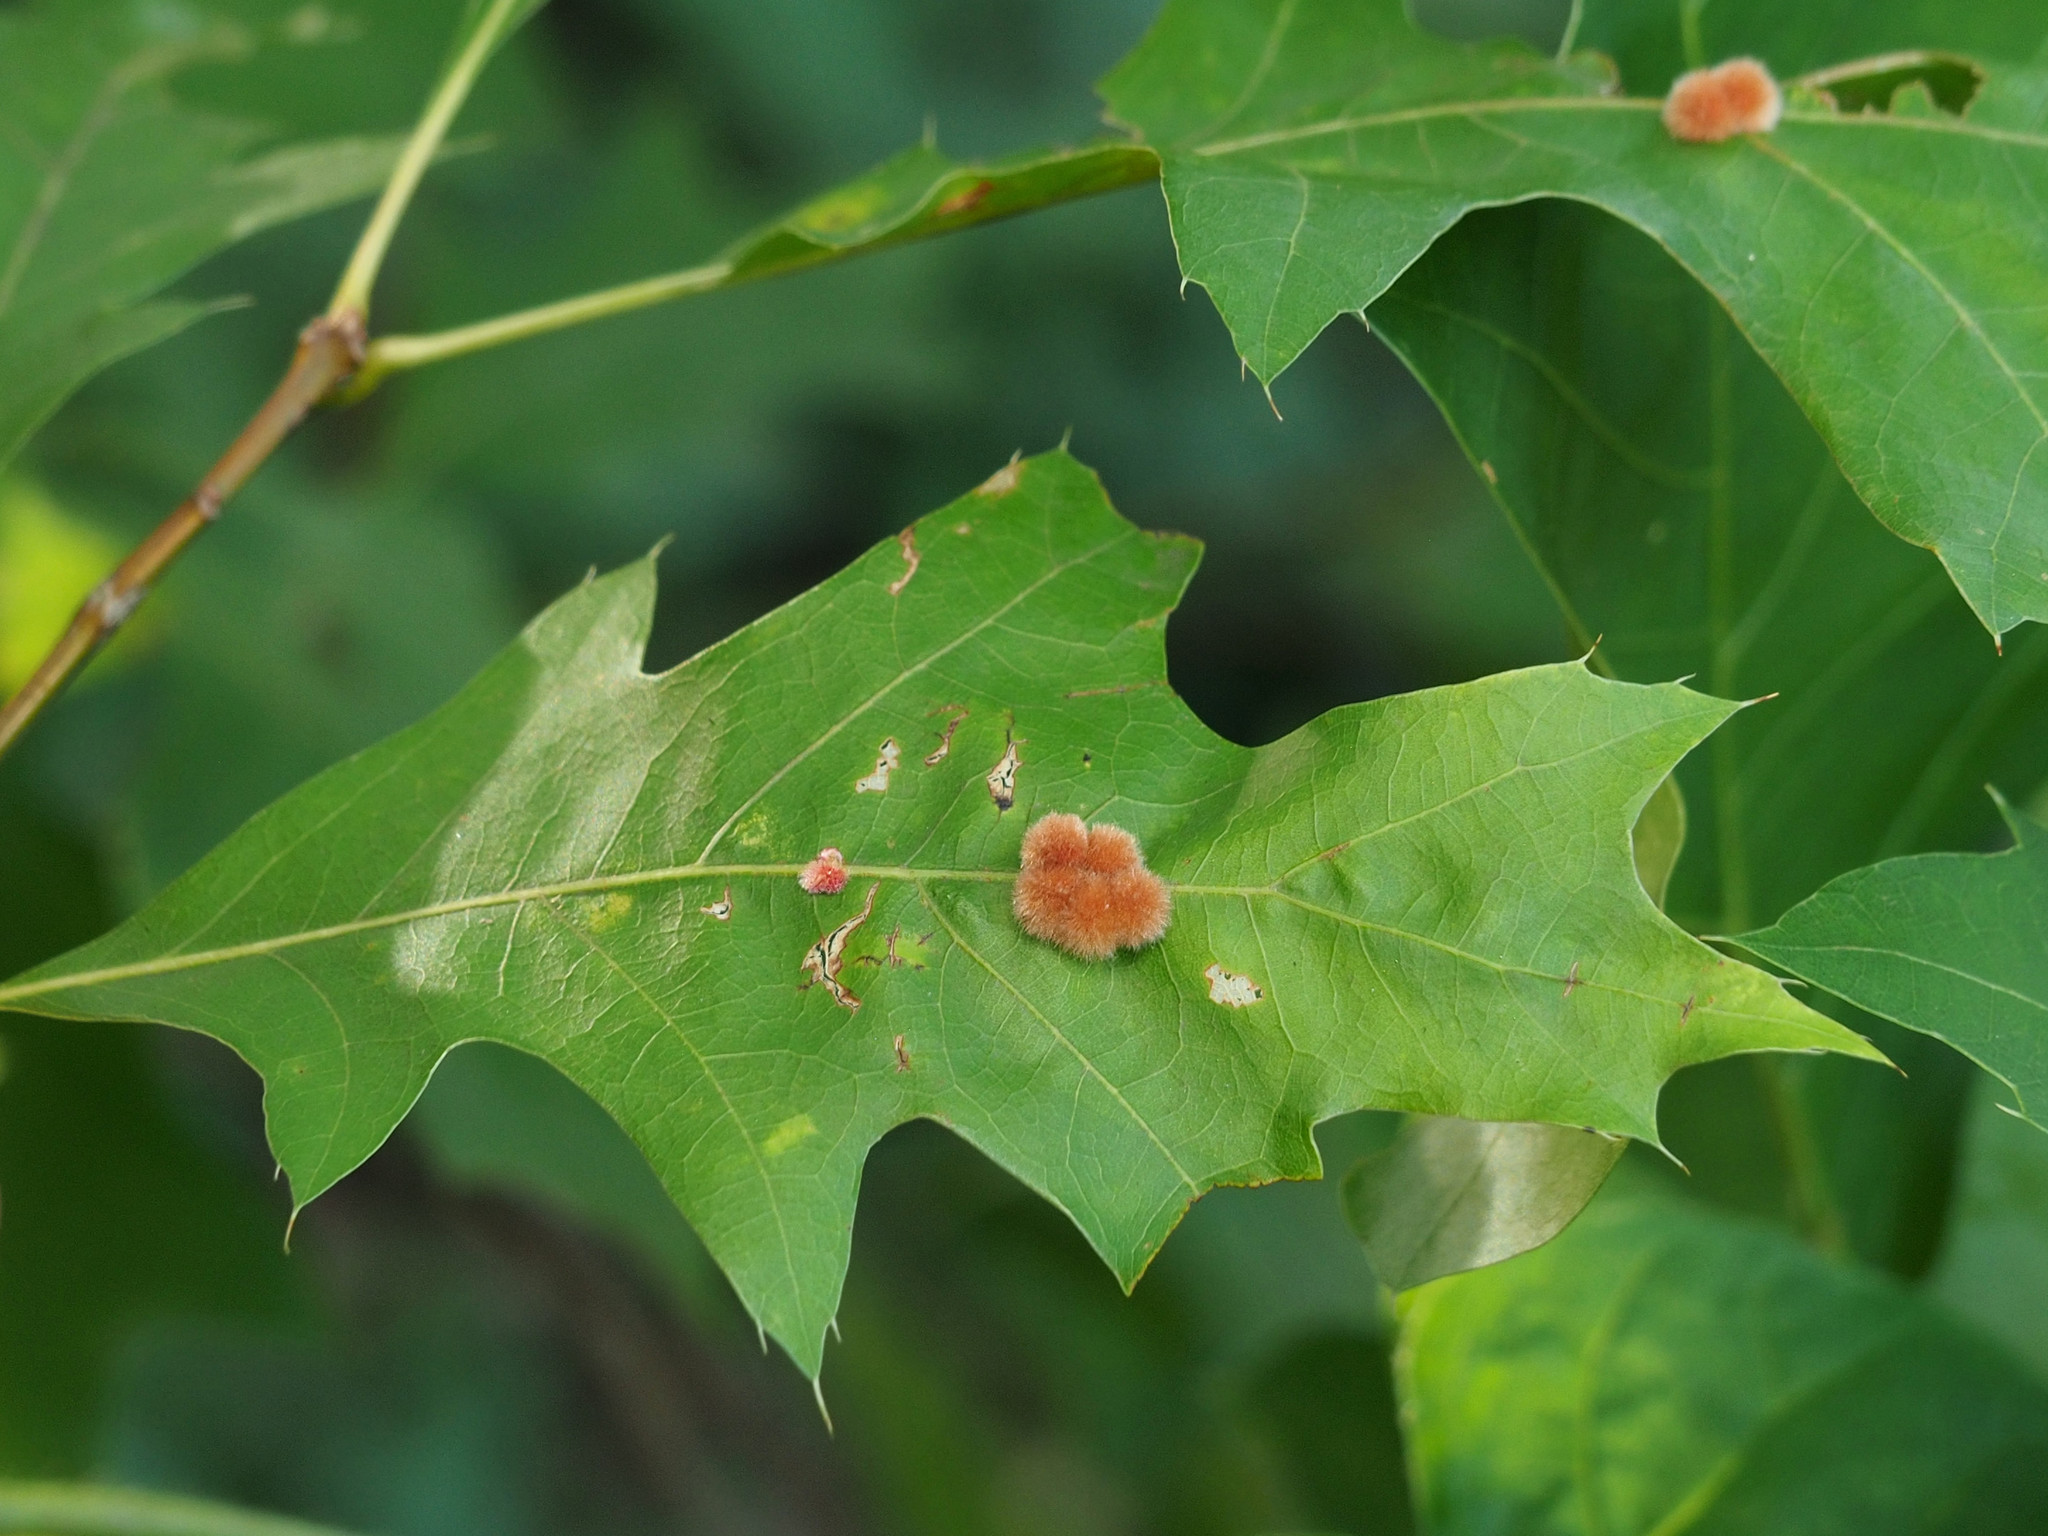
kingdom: Animalia
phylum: Arthropoda
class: Insecta
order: Hymenoptera
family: Cynipidae
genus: Callirhytis
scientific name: Callirhytis
